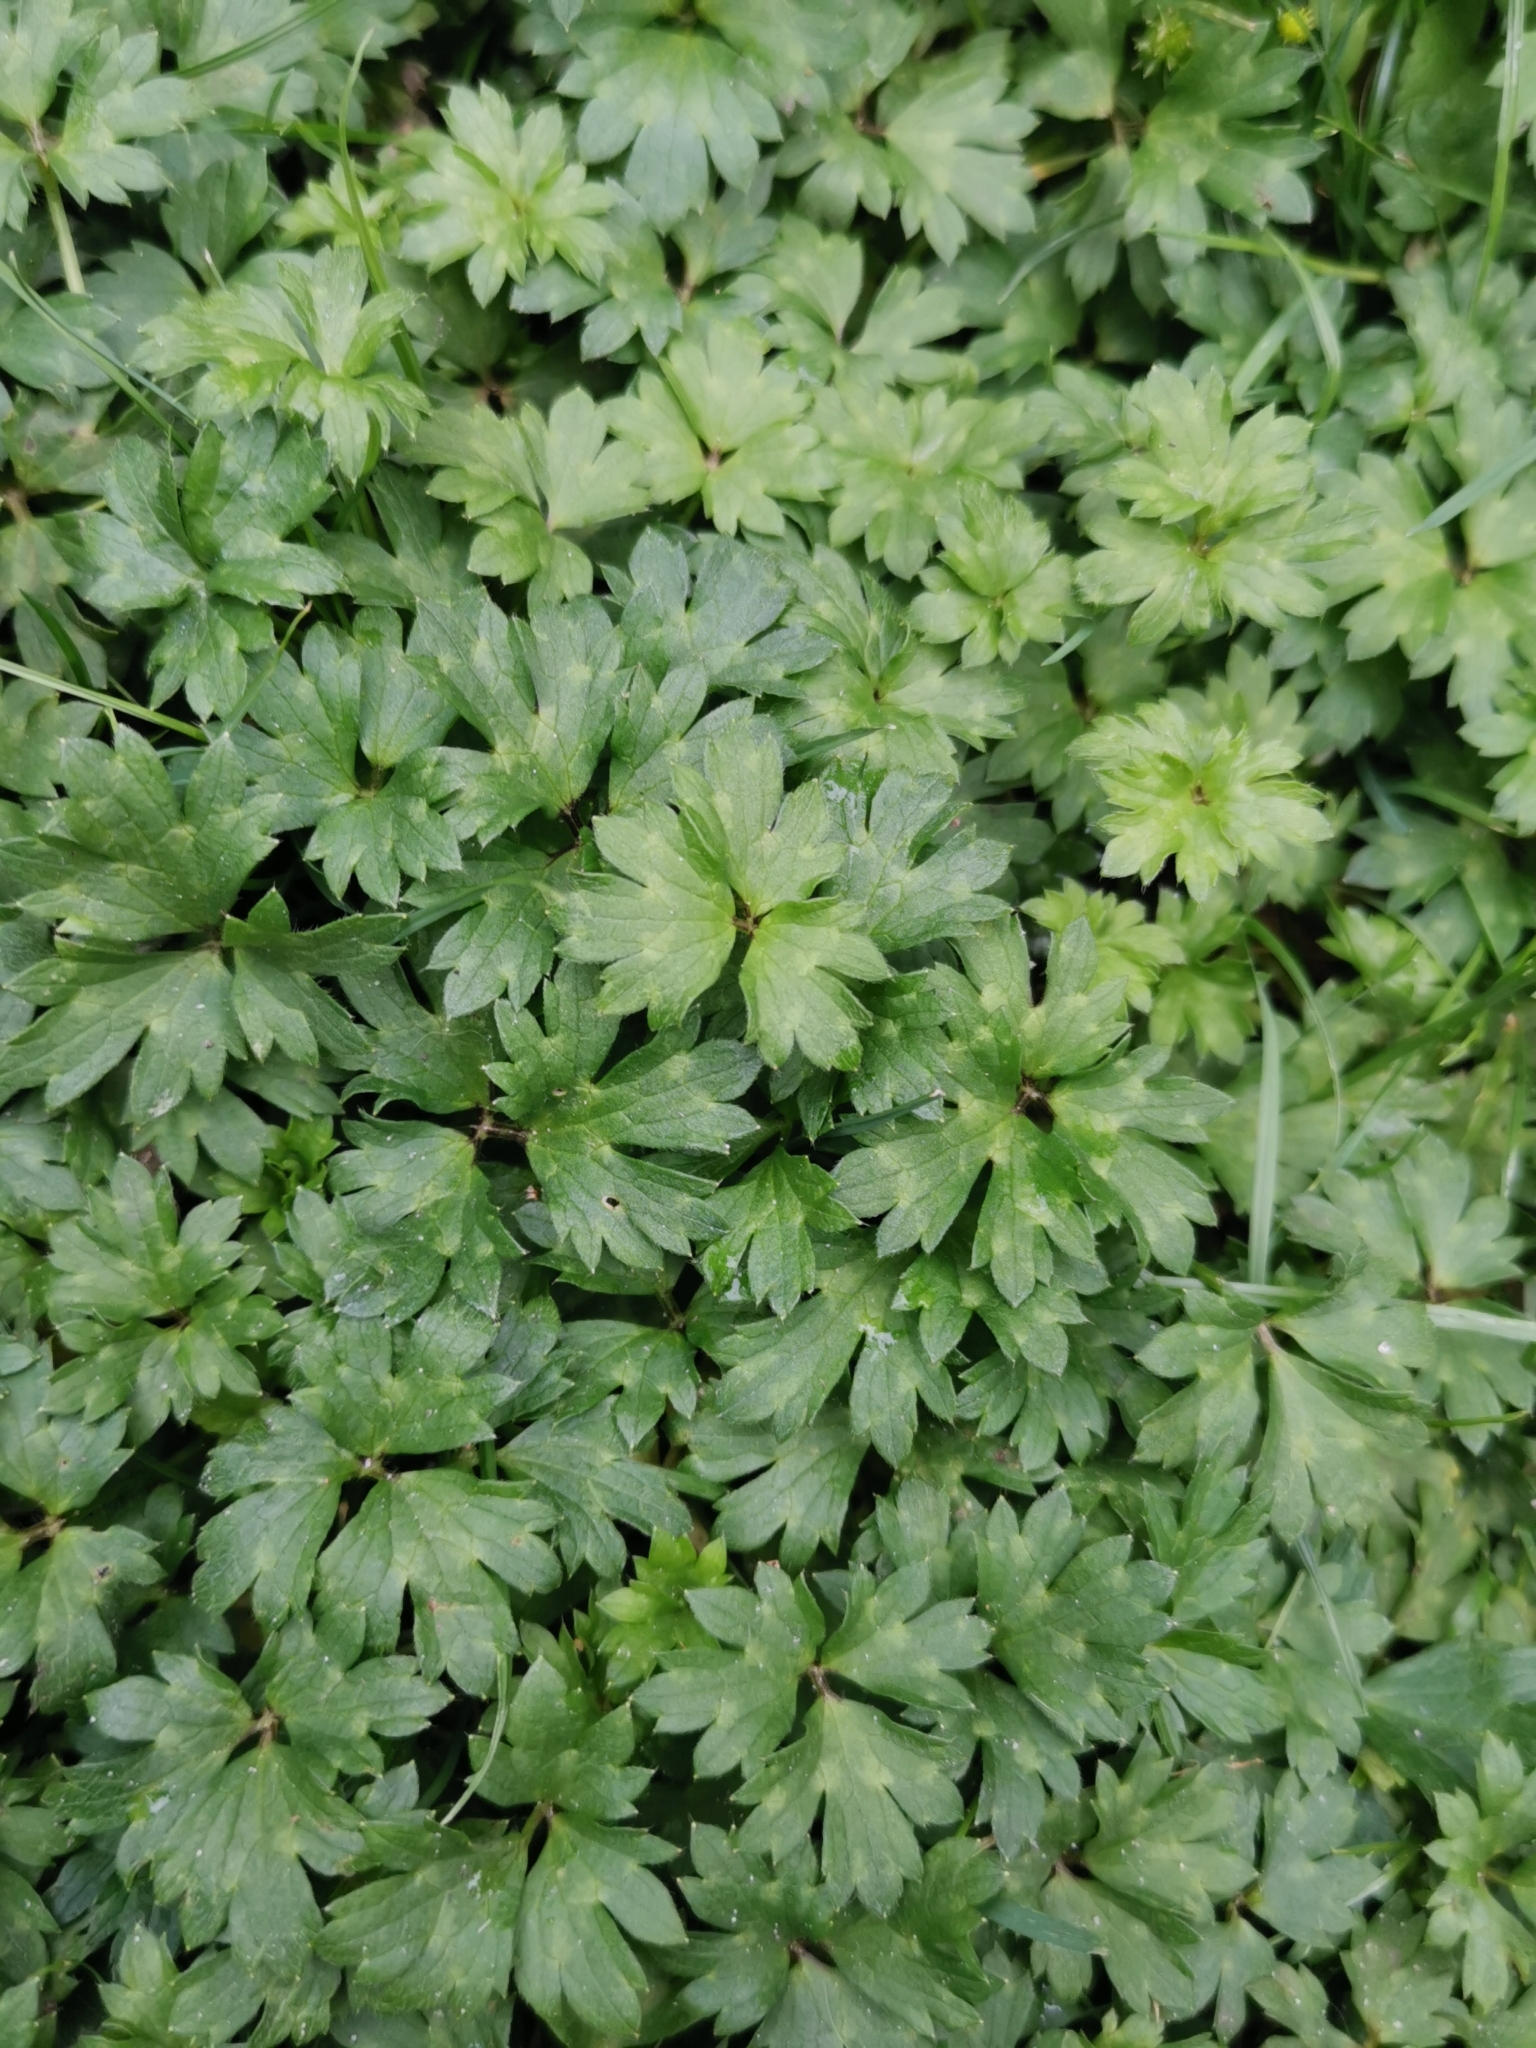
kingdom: Plantae
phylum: Tracheophyta
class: Magnoliopsida
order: Ranunculales
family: Ranunculaceae
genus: Ranunculus
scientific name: Ranunculus repens
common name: Creeping buttercup
